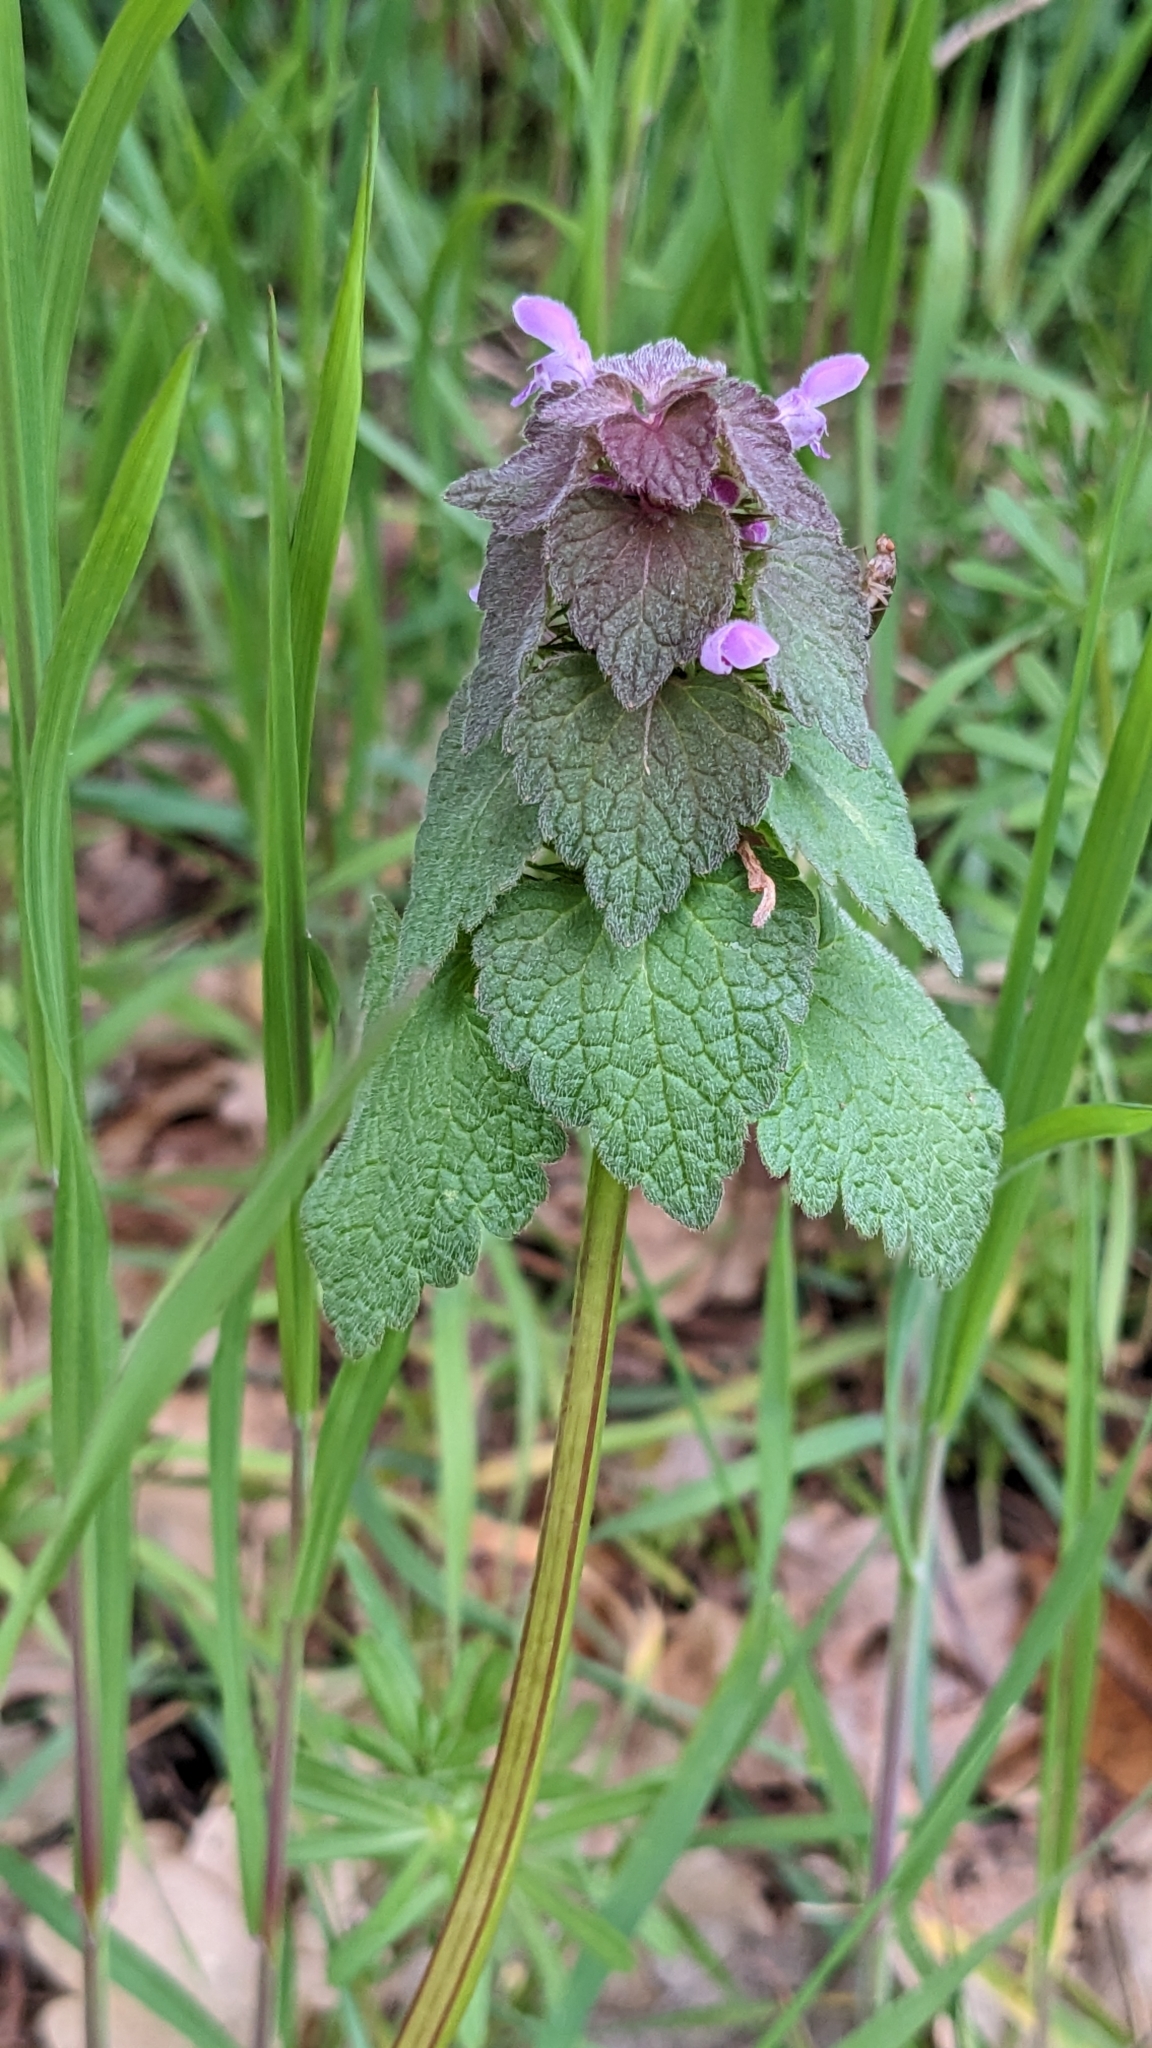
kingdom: Plantae
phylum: Tracheophyta
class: Magnoliopsida
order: Lamiales
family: Lamiaceae
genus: Lamium
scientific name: Lamium purpureum
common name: Red dead-nettle
